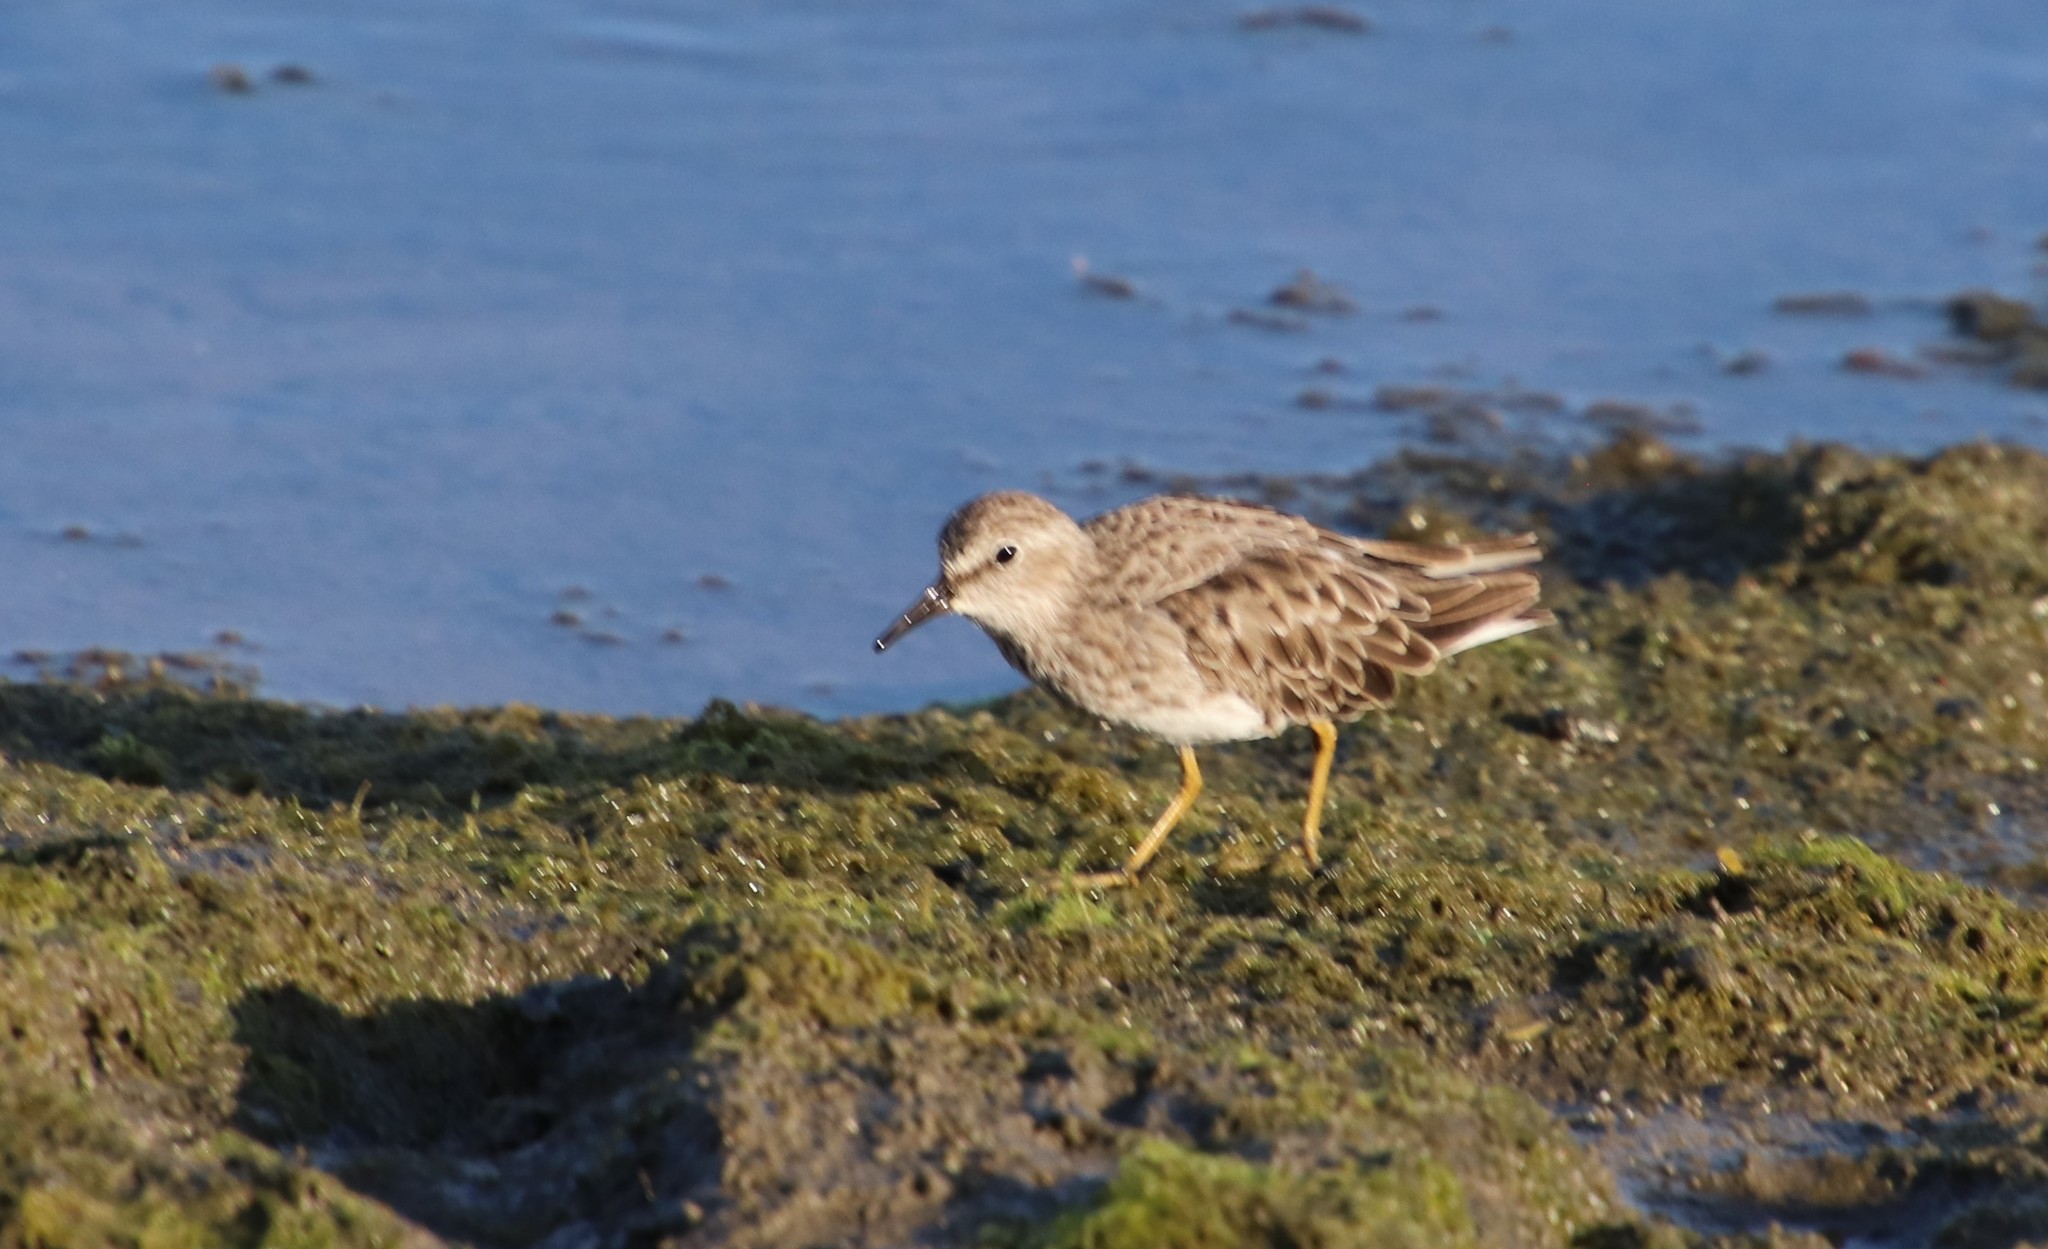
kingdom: Animalia
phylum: Chordata
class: Aves
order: Charadriiformes
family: Scolopacidae
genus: Calidris
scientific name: Calidris minutilla
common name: Least sandpiper
